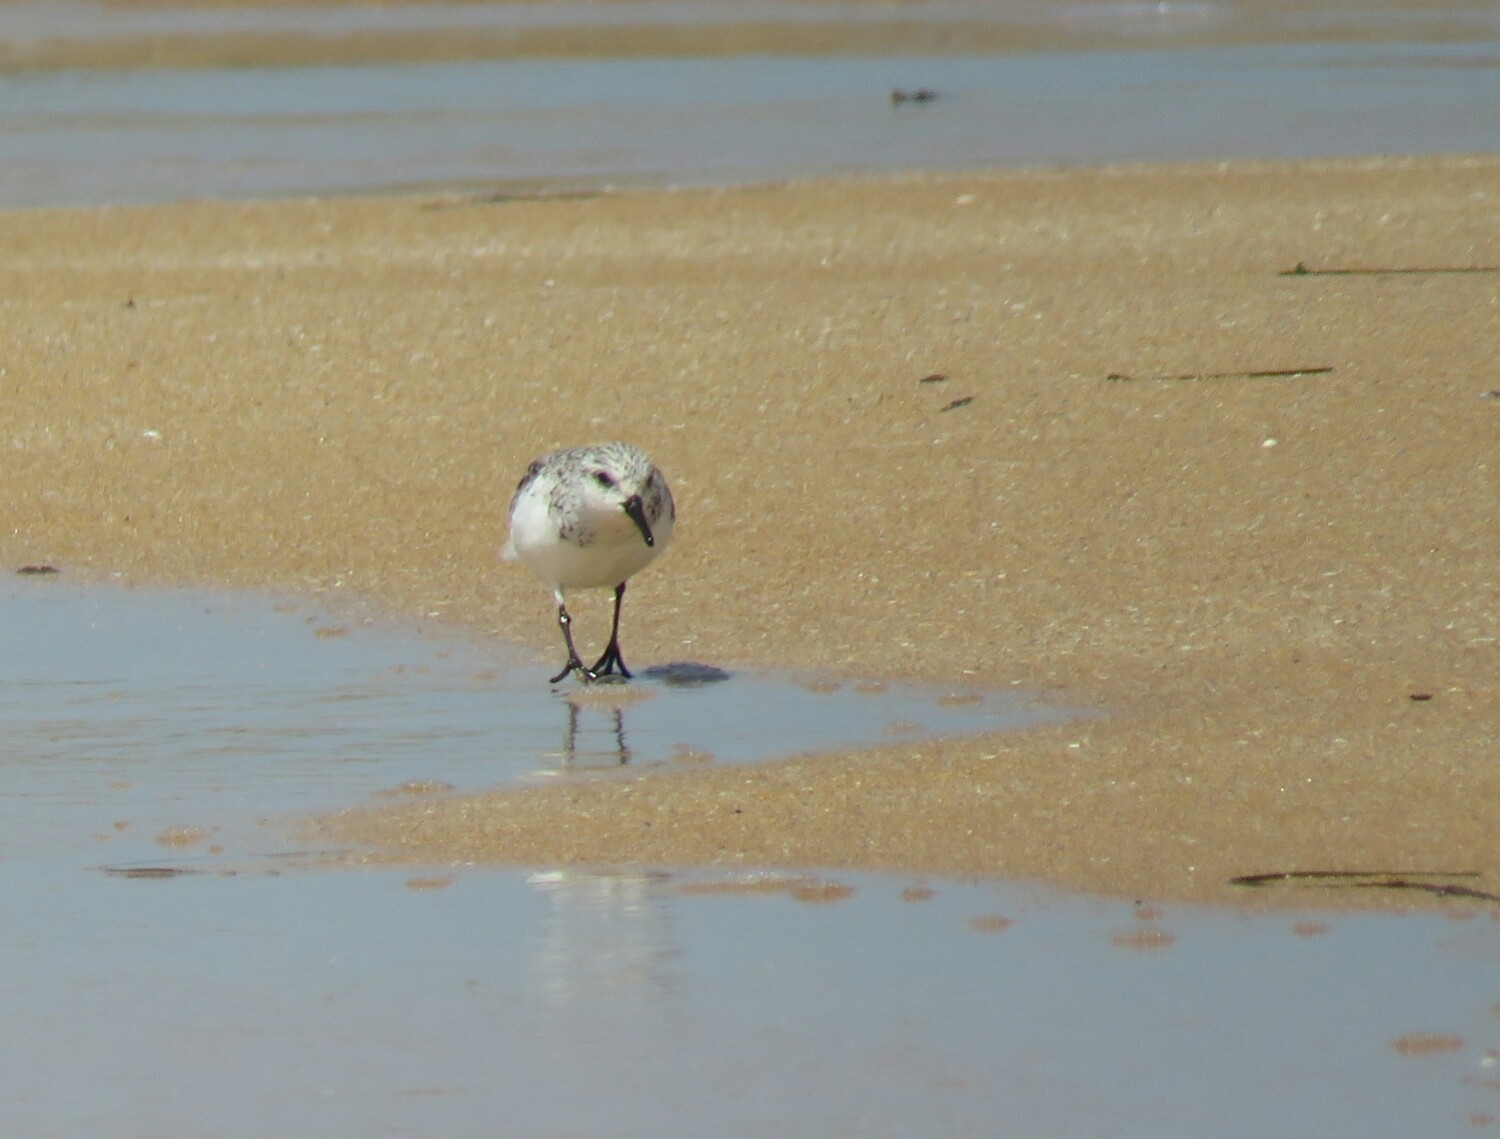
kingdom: Animalia
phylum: Chordata
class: Aves
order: Charadriiformes
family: Scolopacidae
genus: Calidris
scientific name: Calidris alba
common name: Sanderling
